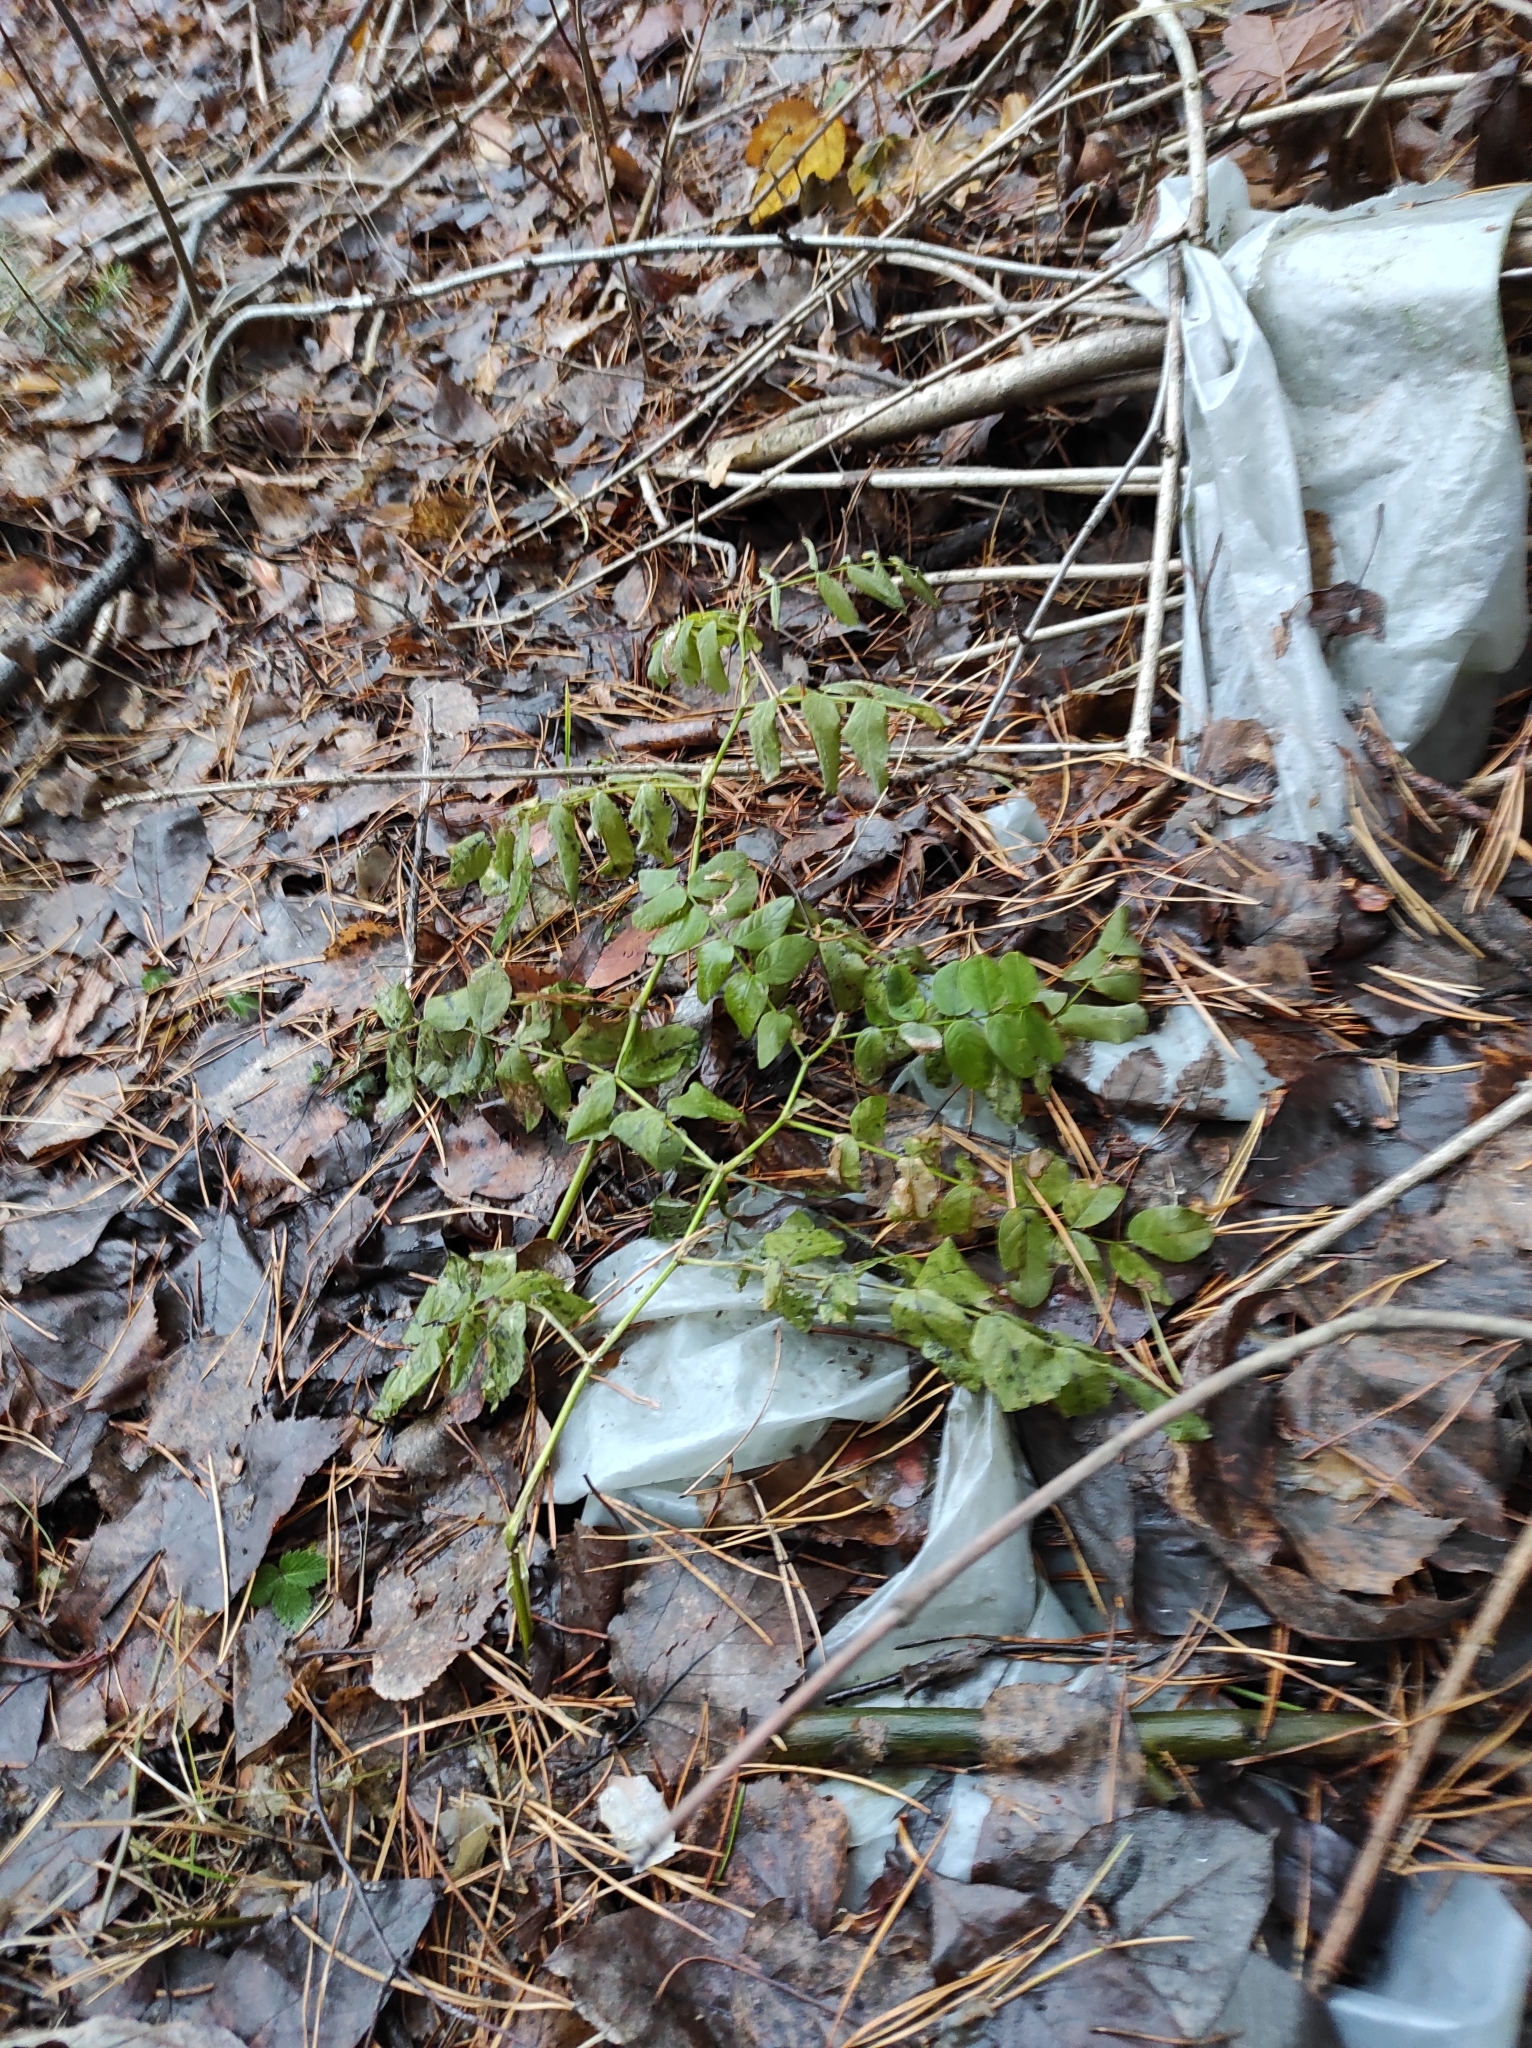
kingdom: Plantae
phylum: Tracheophyta
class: Magnoliopsida
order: Fabales
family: Fabaceae
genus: Astragalus
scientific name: Astragalus glycyphyllos
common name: Wild liquorice
